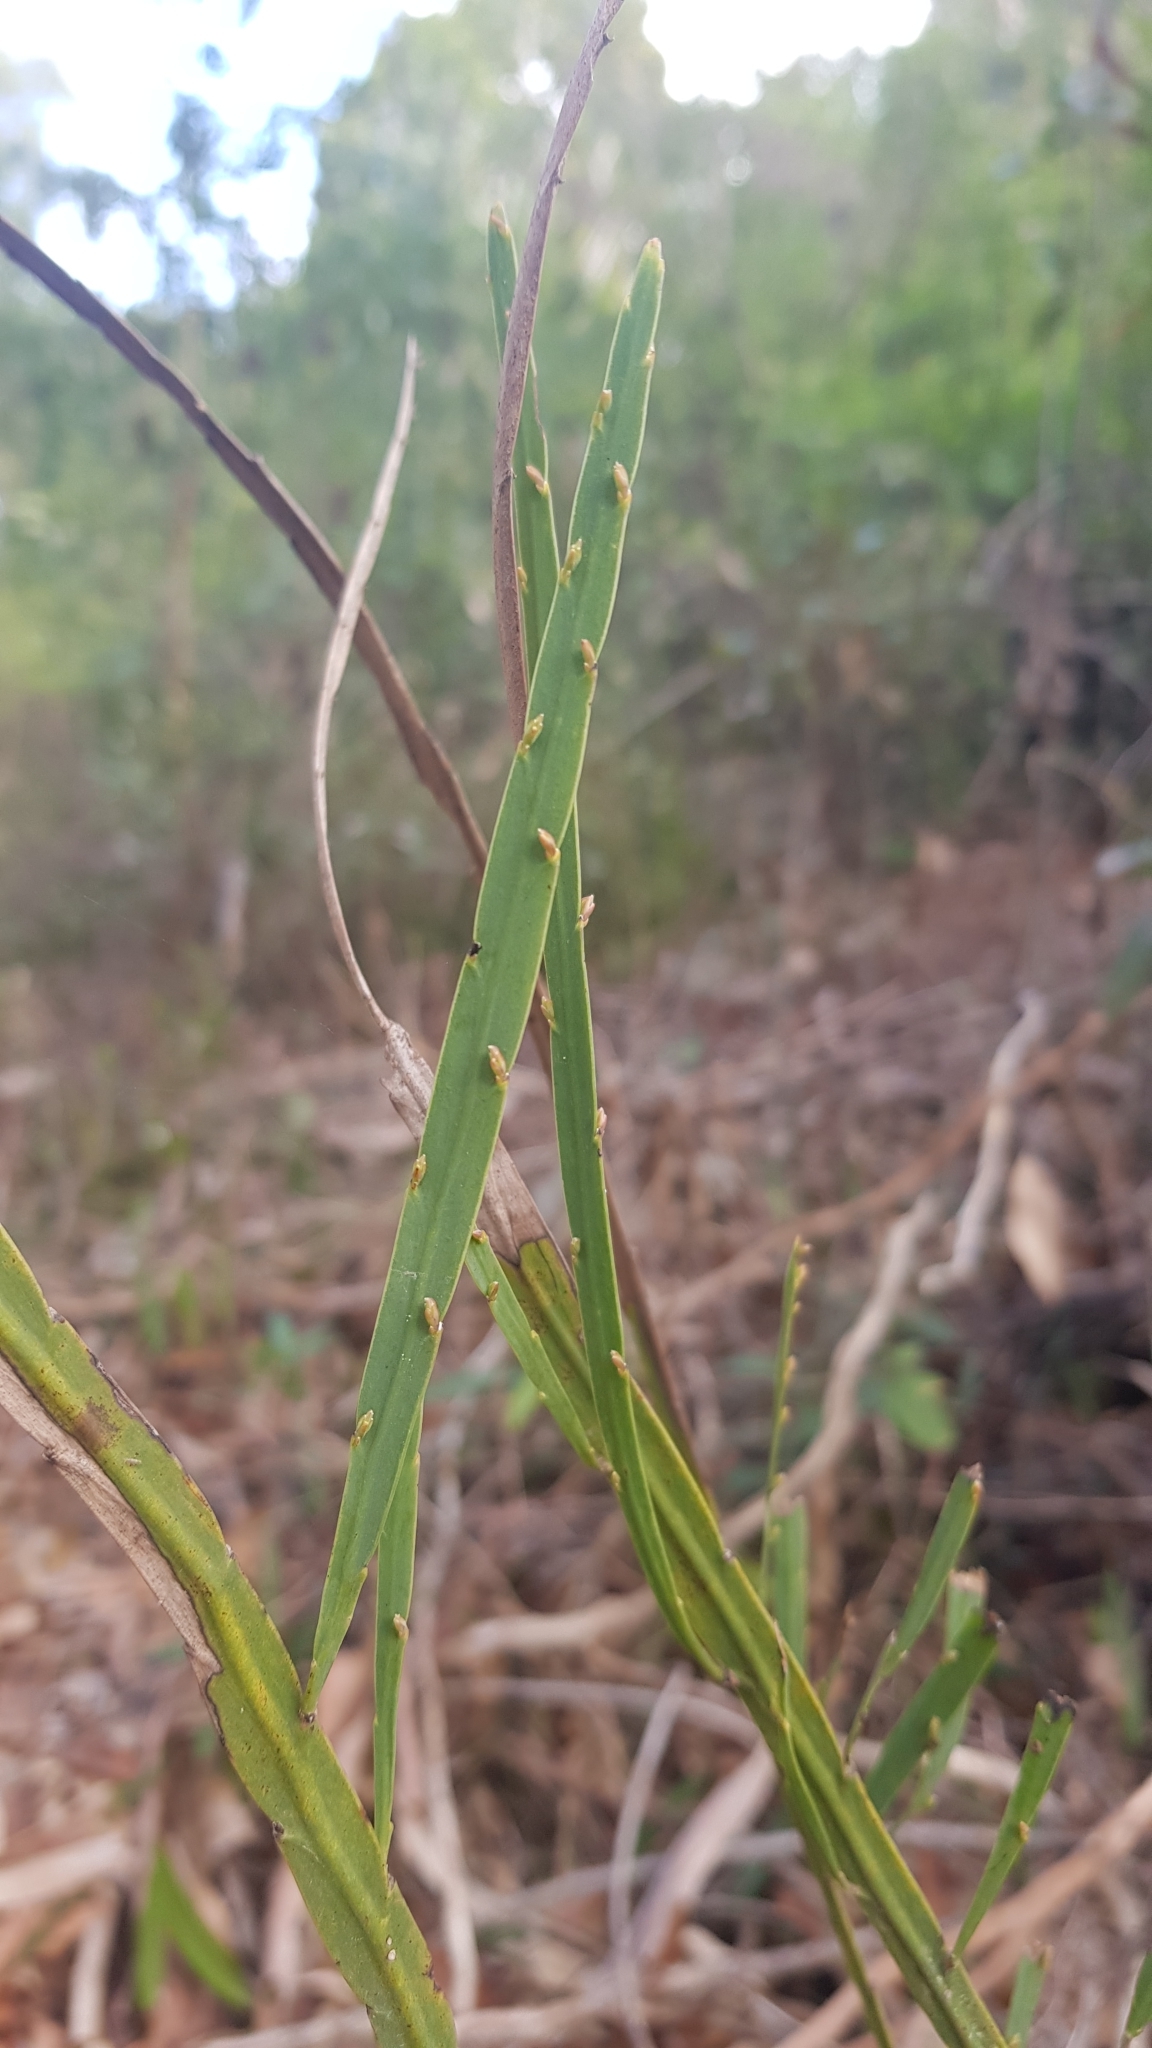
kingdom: Plantae
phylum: Tracheophyta
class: Magnoliopsida
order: Fabales
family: Fabaceae
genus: Bossiaea
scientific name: Bossiaea ensata
